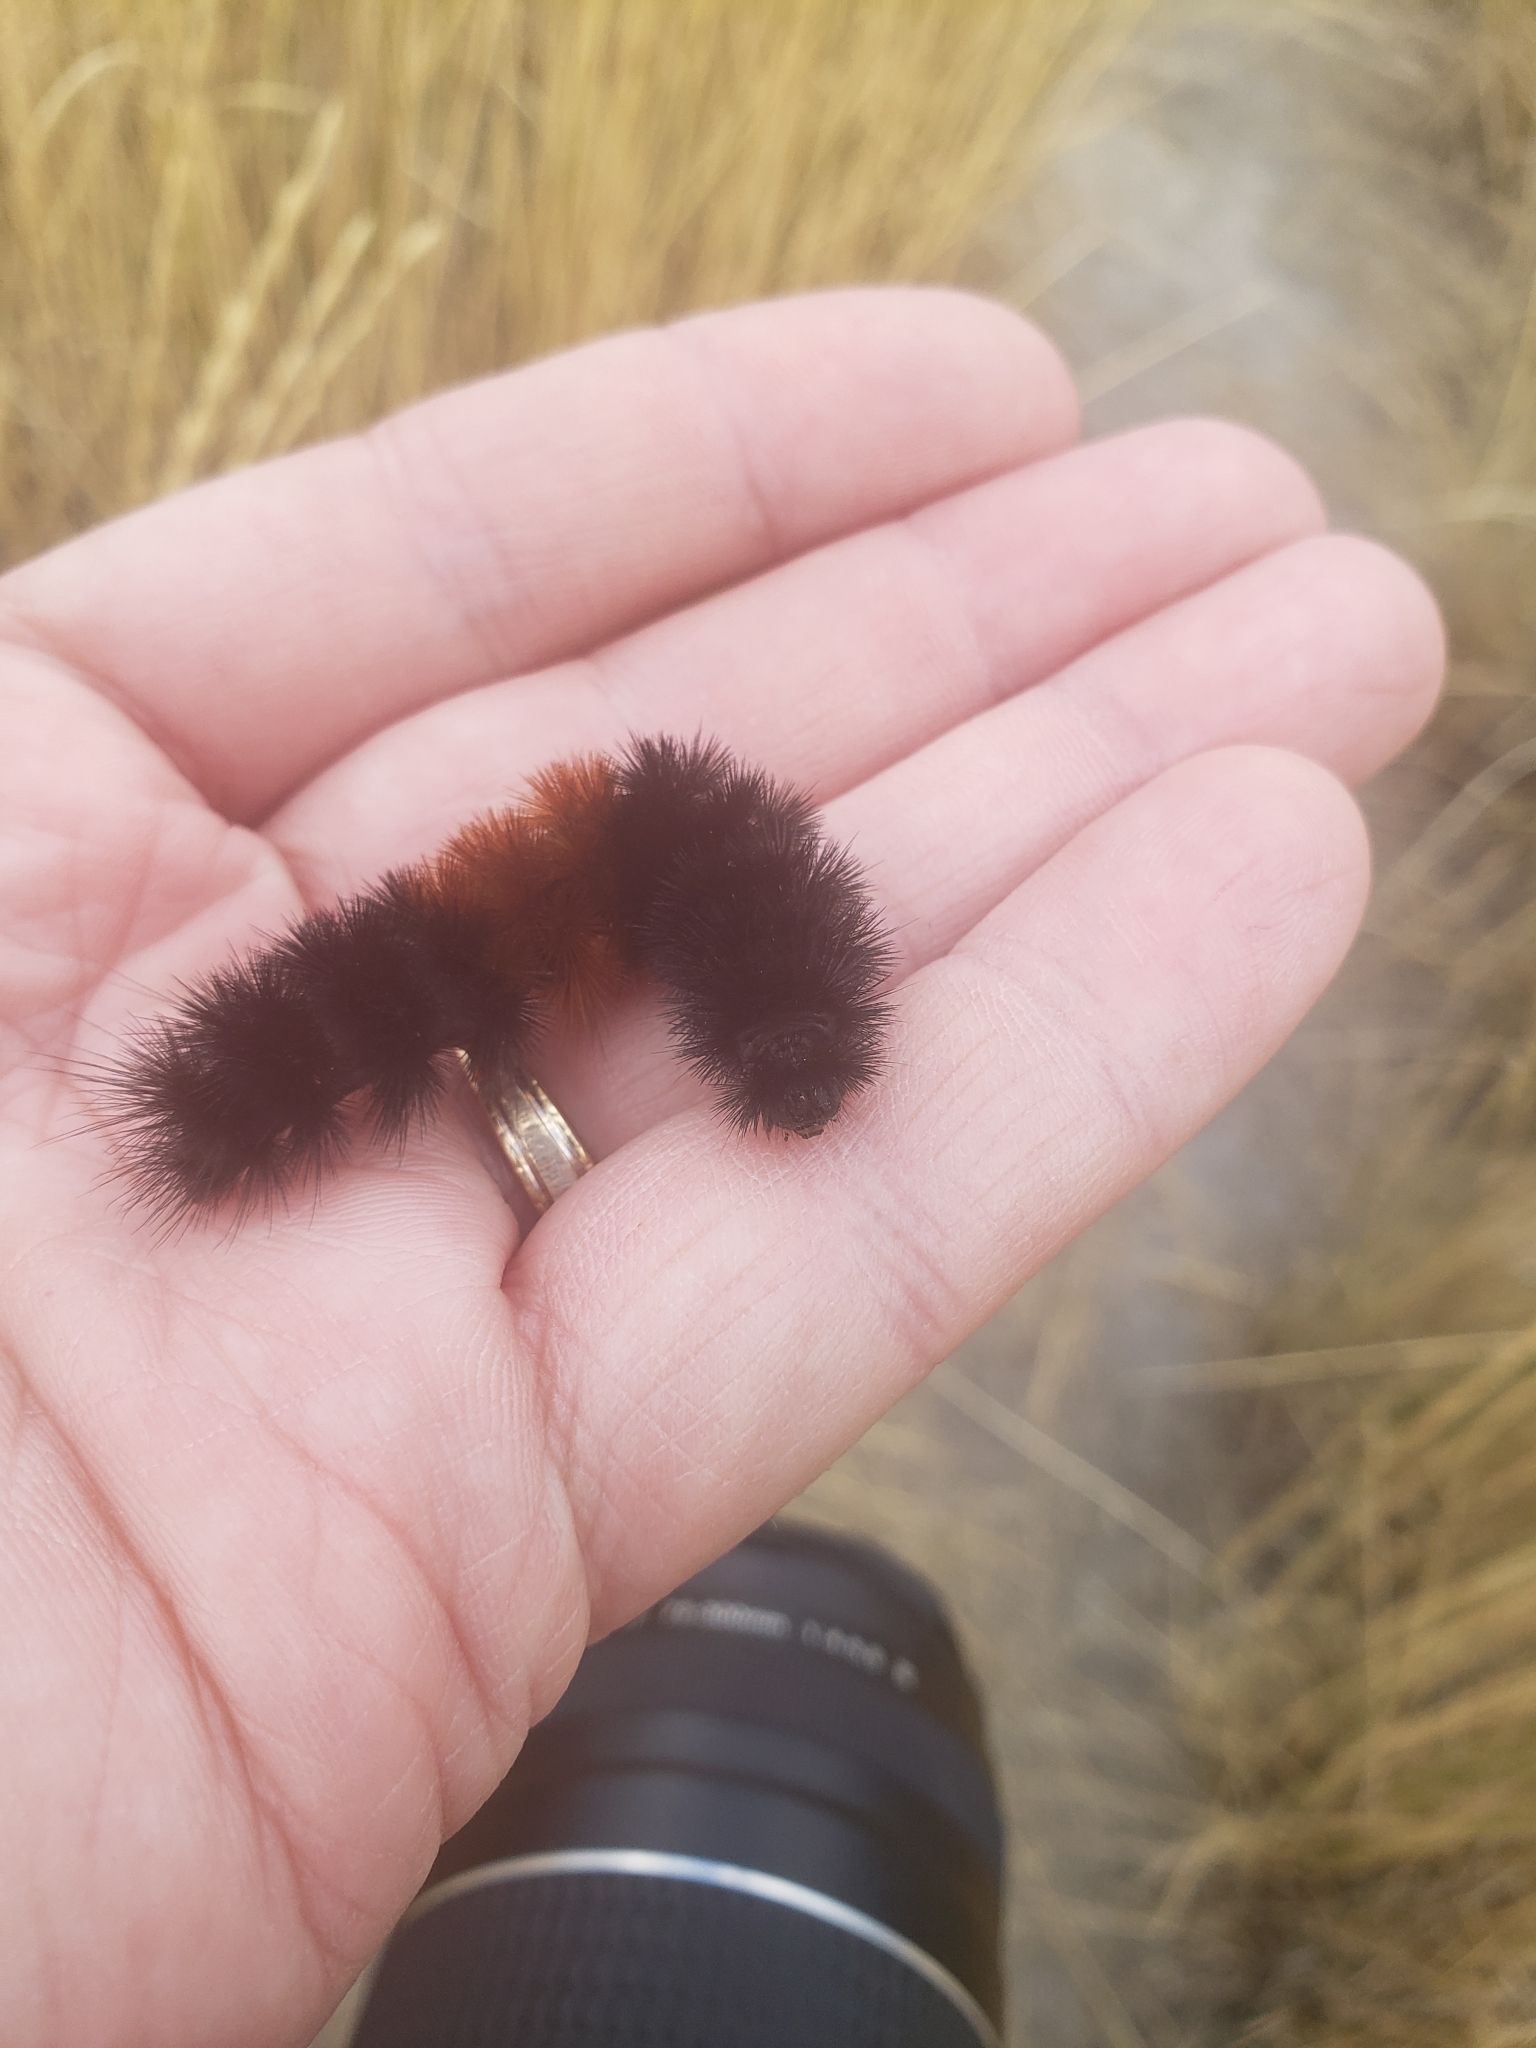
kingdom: Animalia
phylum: Arthropoda
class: Insecta
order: Lepidoptera
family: Erebidae
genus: Pyrrharctia
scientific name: Pyrrharctia isabella
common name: Isabella tiger moth
